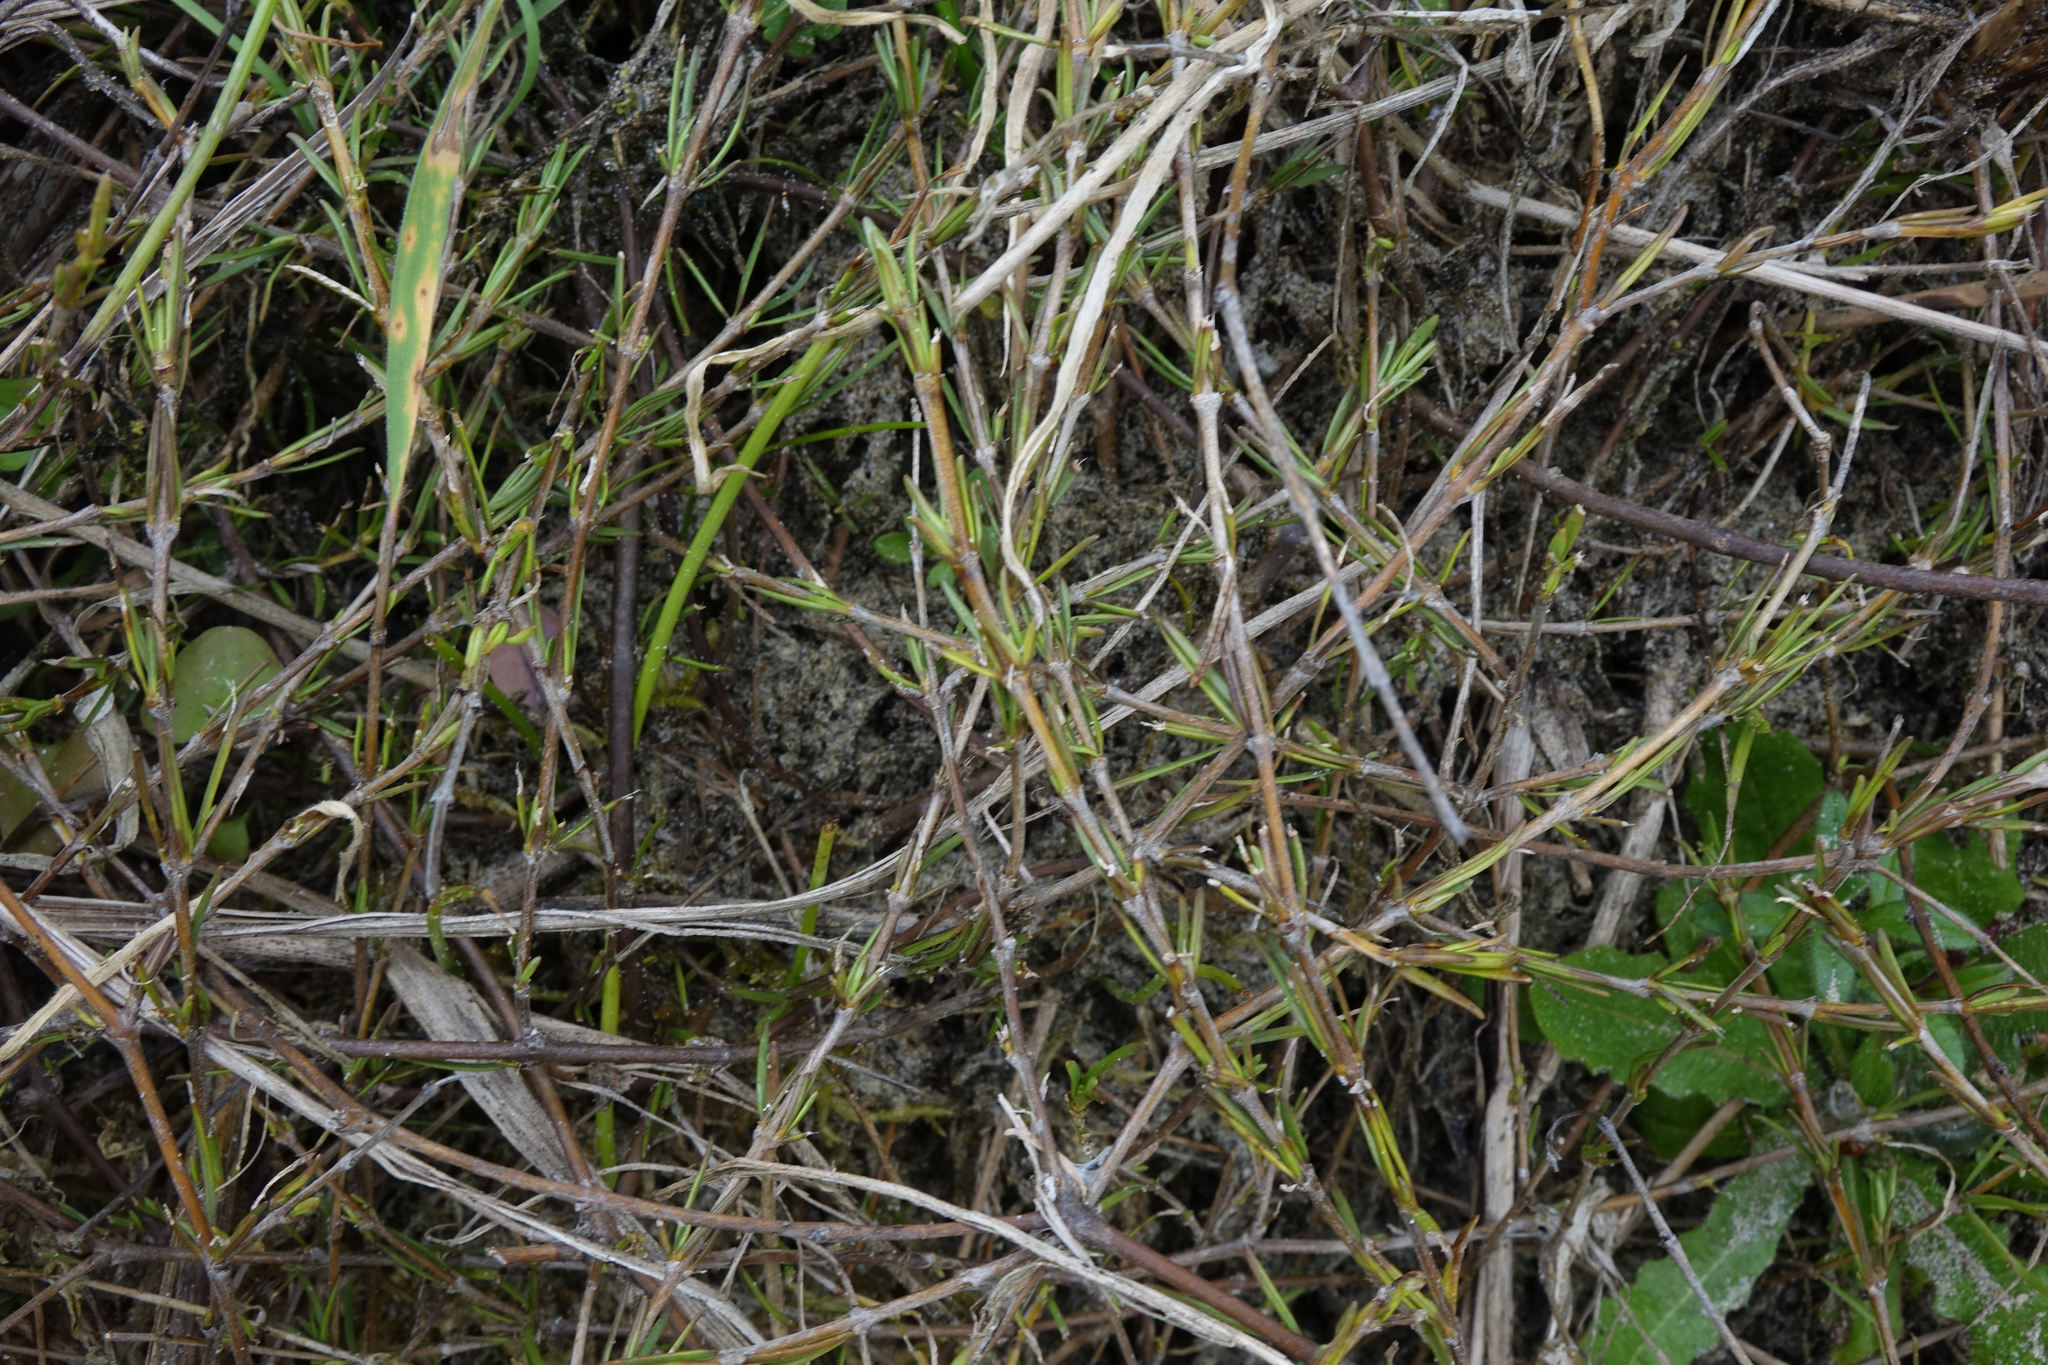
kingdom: Plantae
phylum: Tracheophyta
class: Magnoliopsida
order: Gentianales
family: Rubiaceae
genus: Coprosma
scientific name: Coprosma acerosa
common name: Sand coprosma
